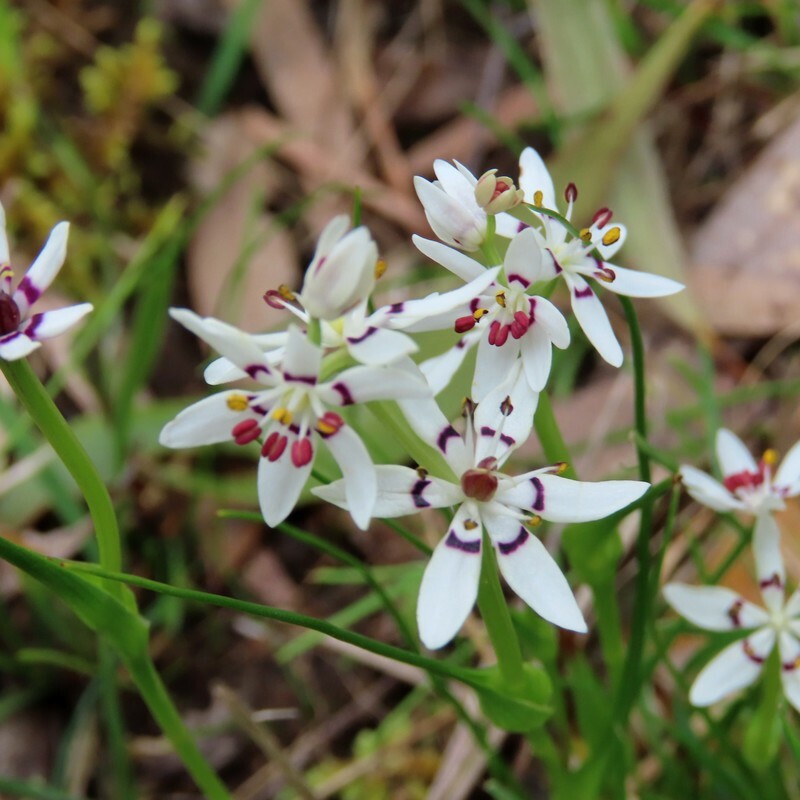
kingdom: Plantae
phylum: Tracheophyta
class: Liliopsida
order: Liliales
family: Colchicaceae
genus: Wurmbea
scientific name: Wurmbea dioica
